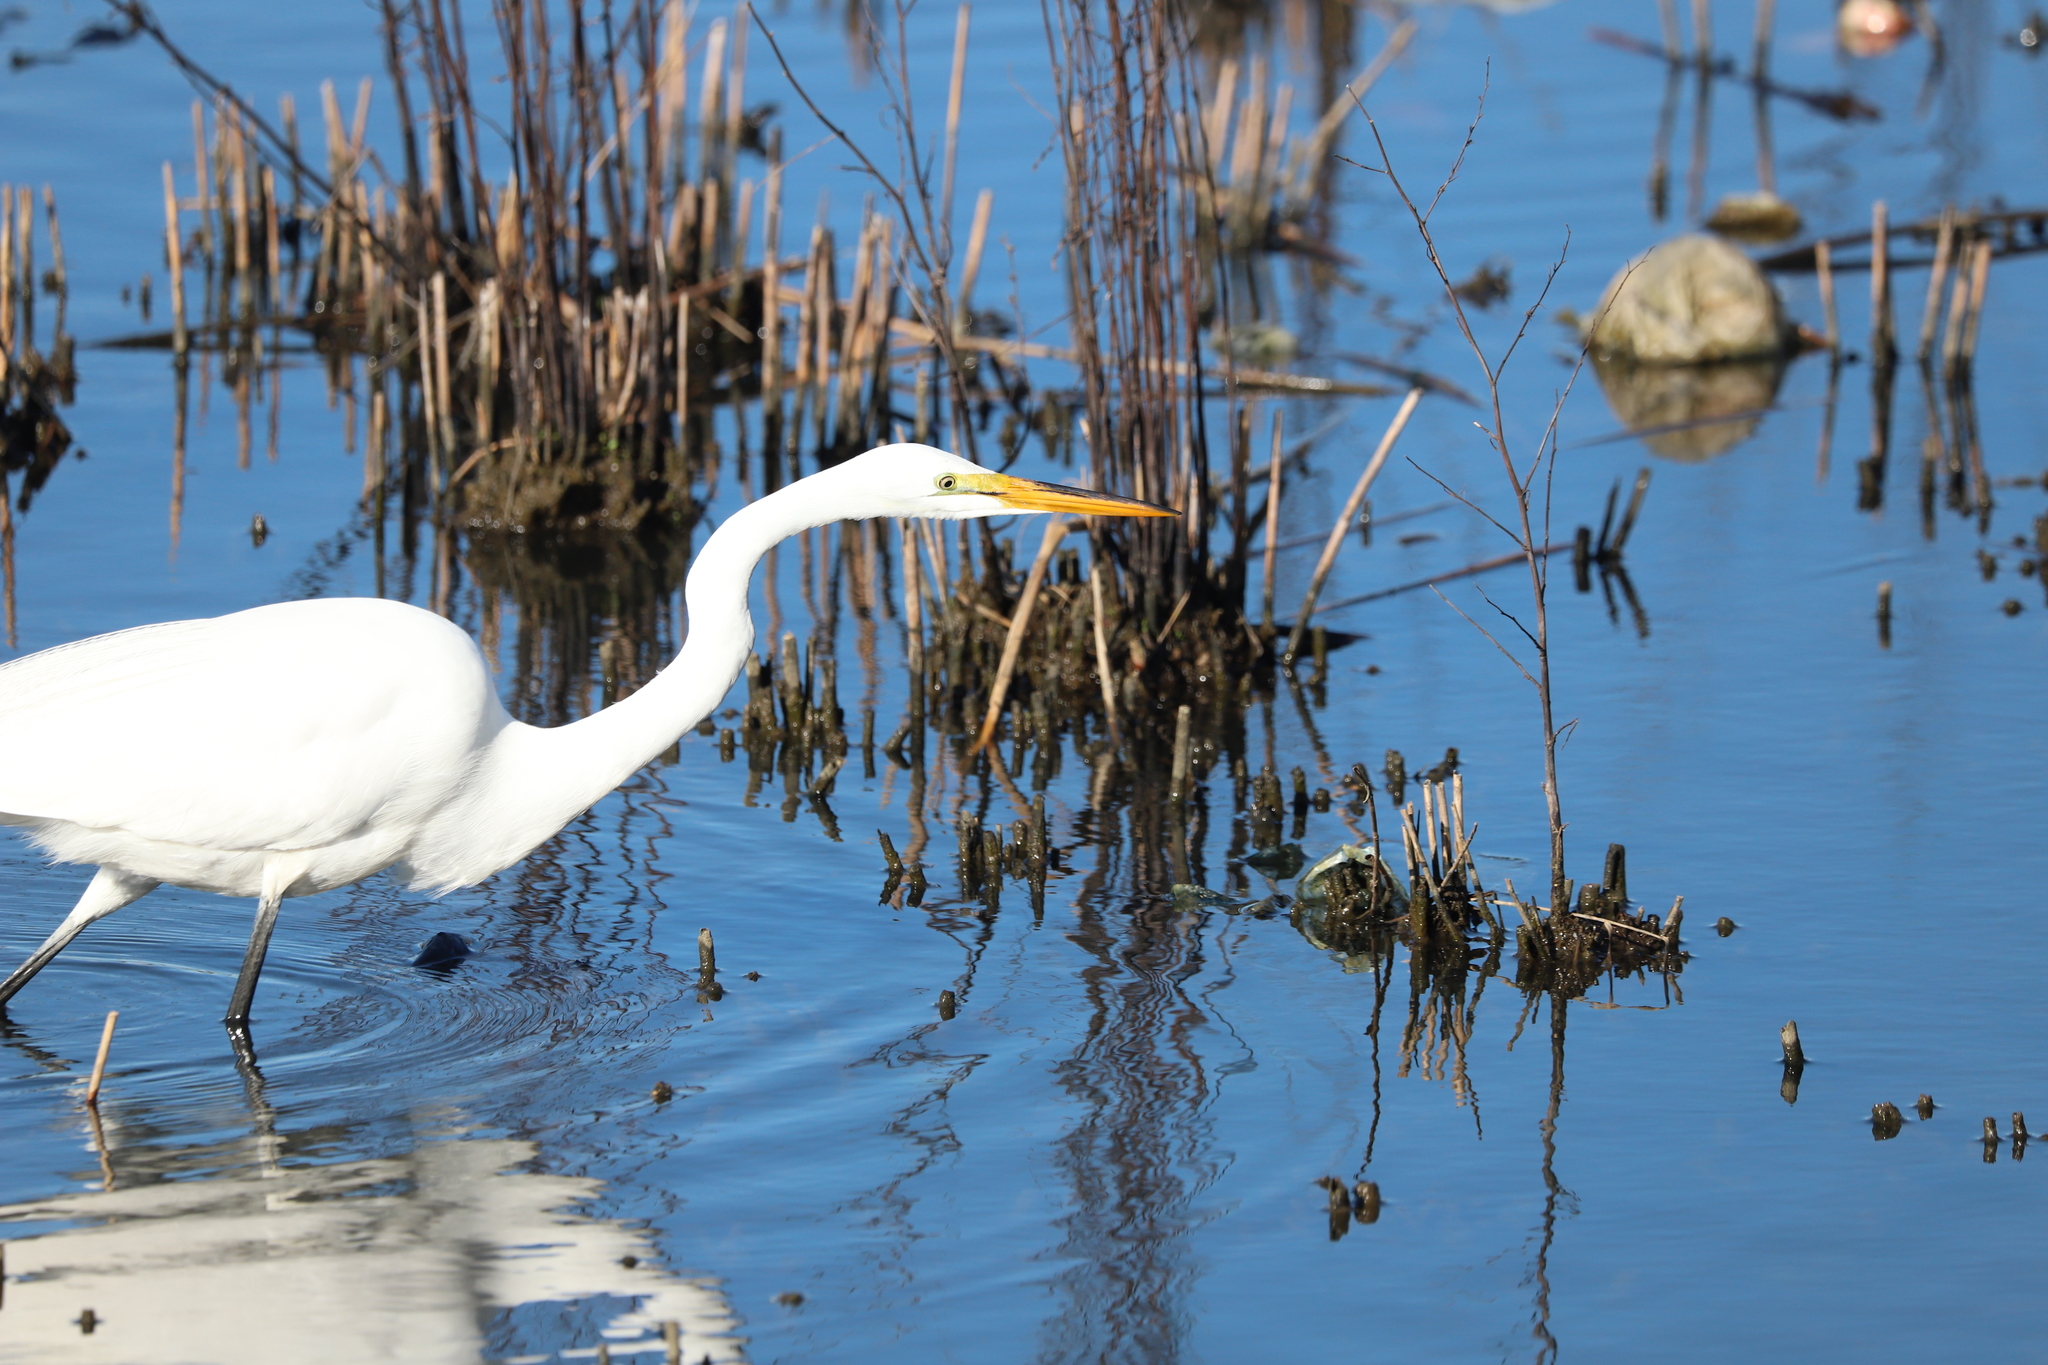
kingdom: Animalia
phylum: Chordata
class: Aves
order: Pelecaniformes
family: Ardeidae
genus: Ardea
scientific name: Ardea alba
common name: Great egret
